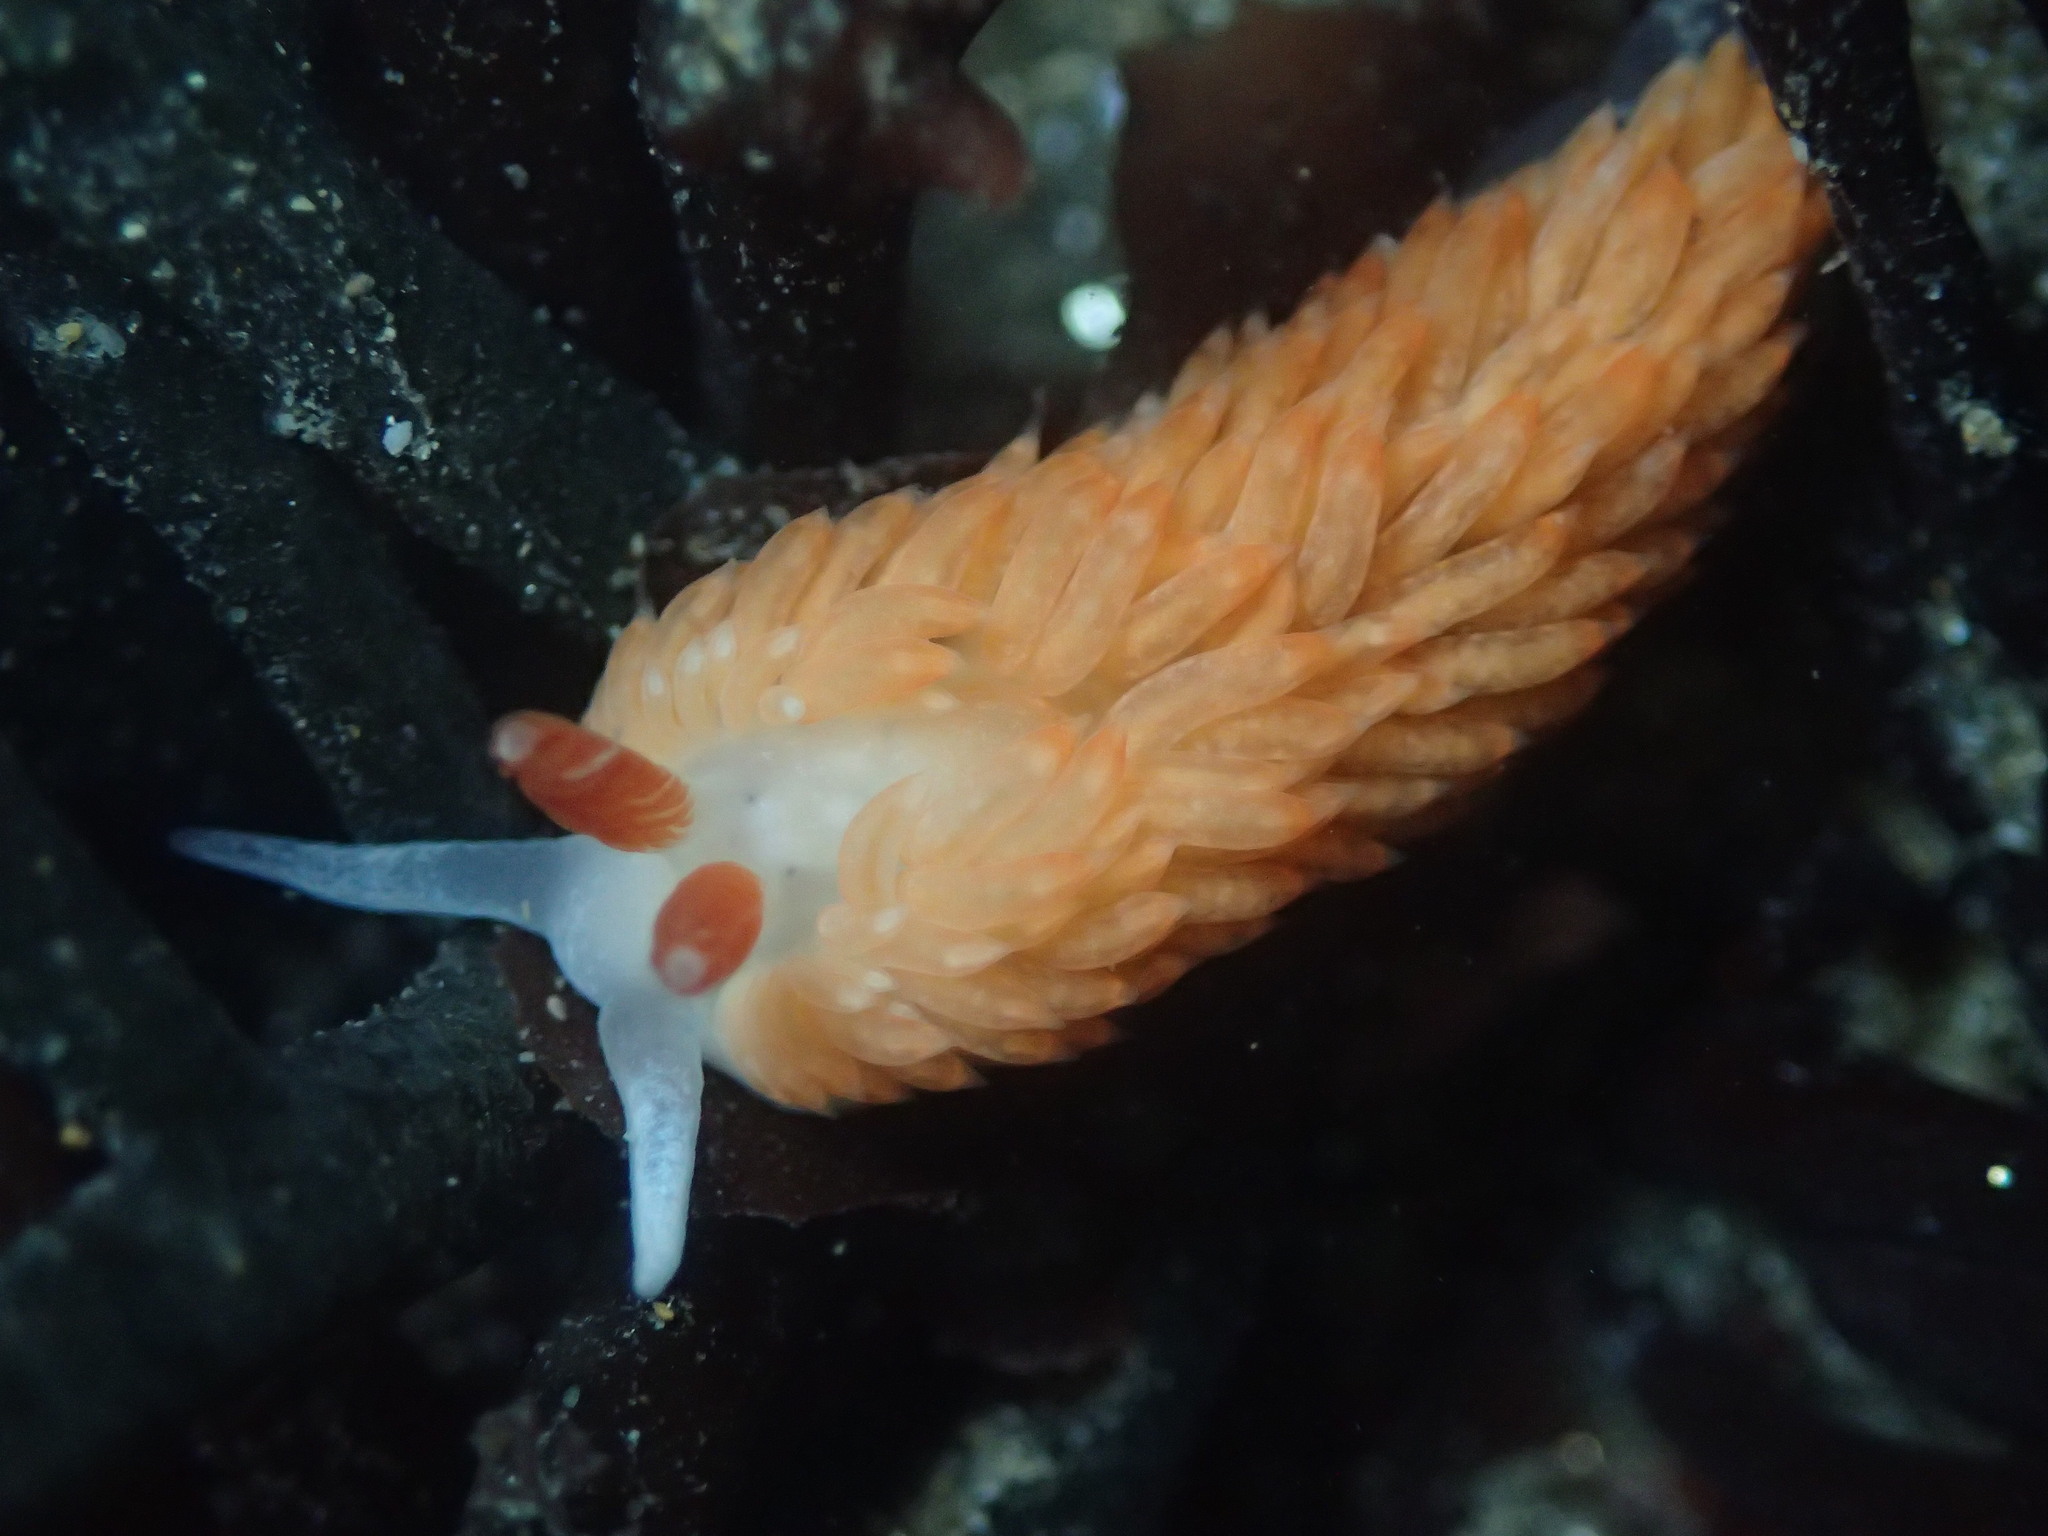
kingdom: Animalia
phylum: Mollusca
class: Gastropoda
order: Nudibranchia
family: Aeolidiidae
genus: Anteaeolidiella
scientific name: Anteaeolidiella oliviae
